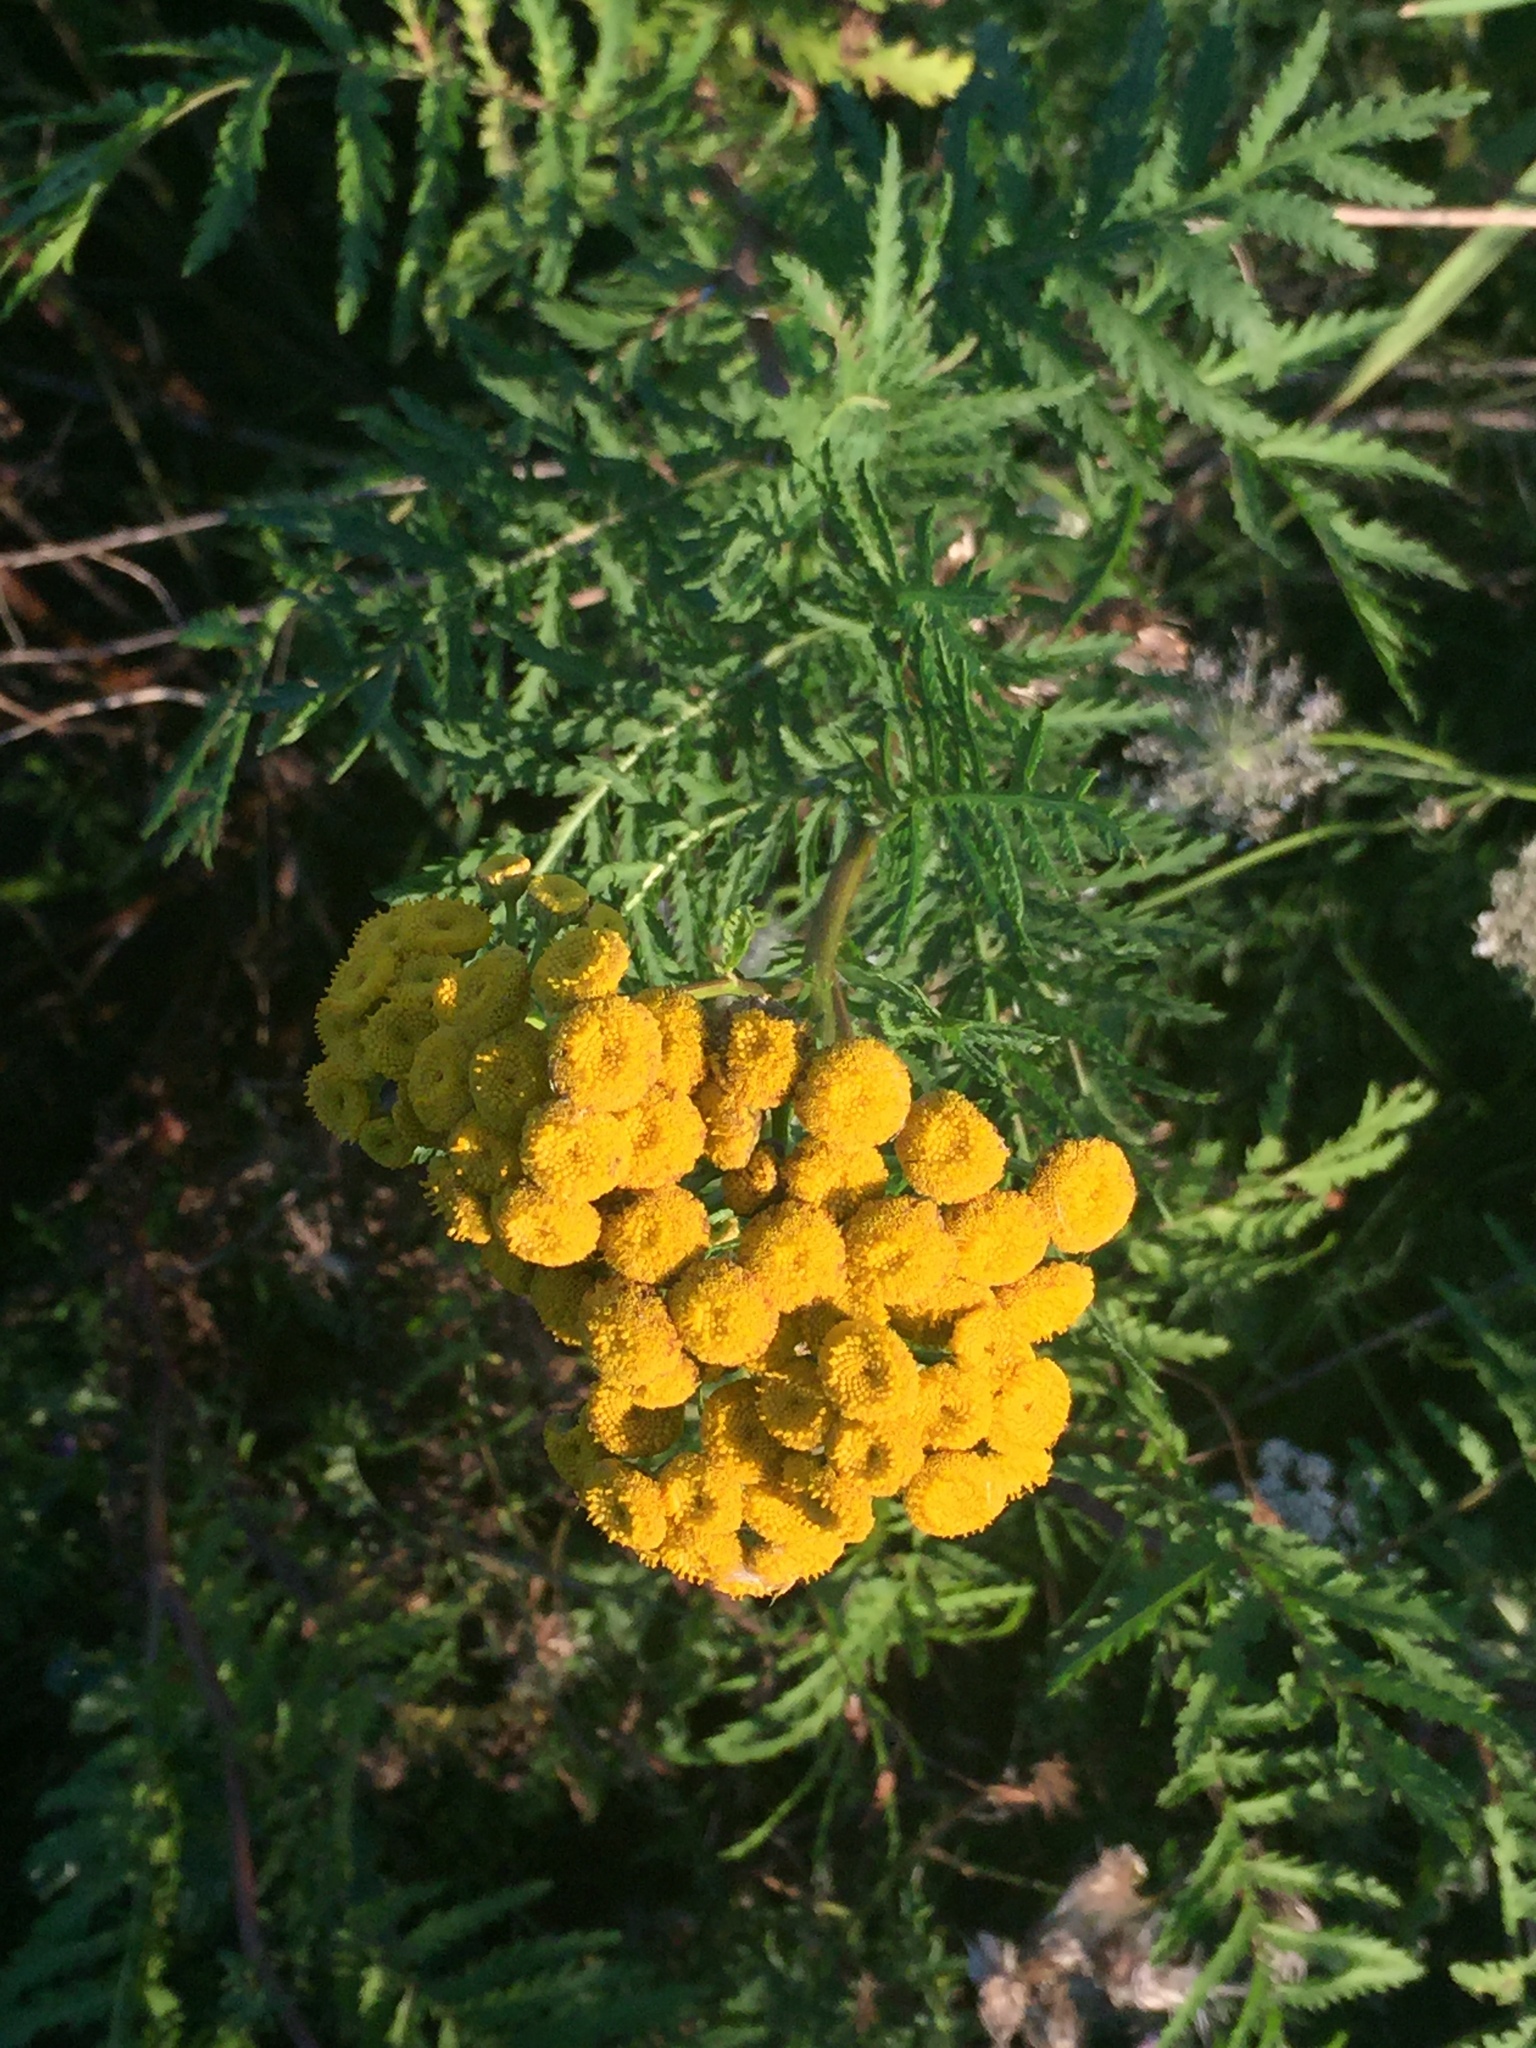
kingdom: Plantae
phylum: Tracheophyta
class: Magnoliopsida
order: Asterales
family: Asteraceae
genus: Tanacetum
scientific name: Tanacetum vulgare
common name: Common tansy
